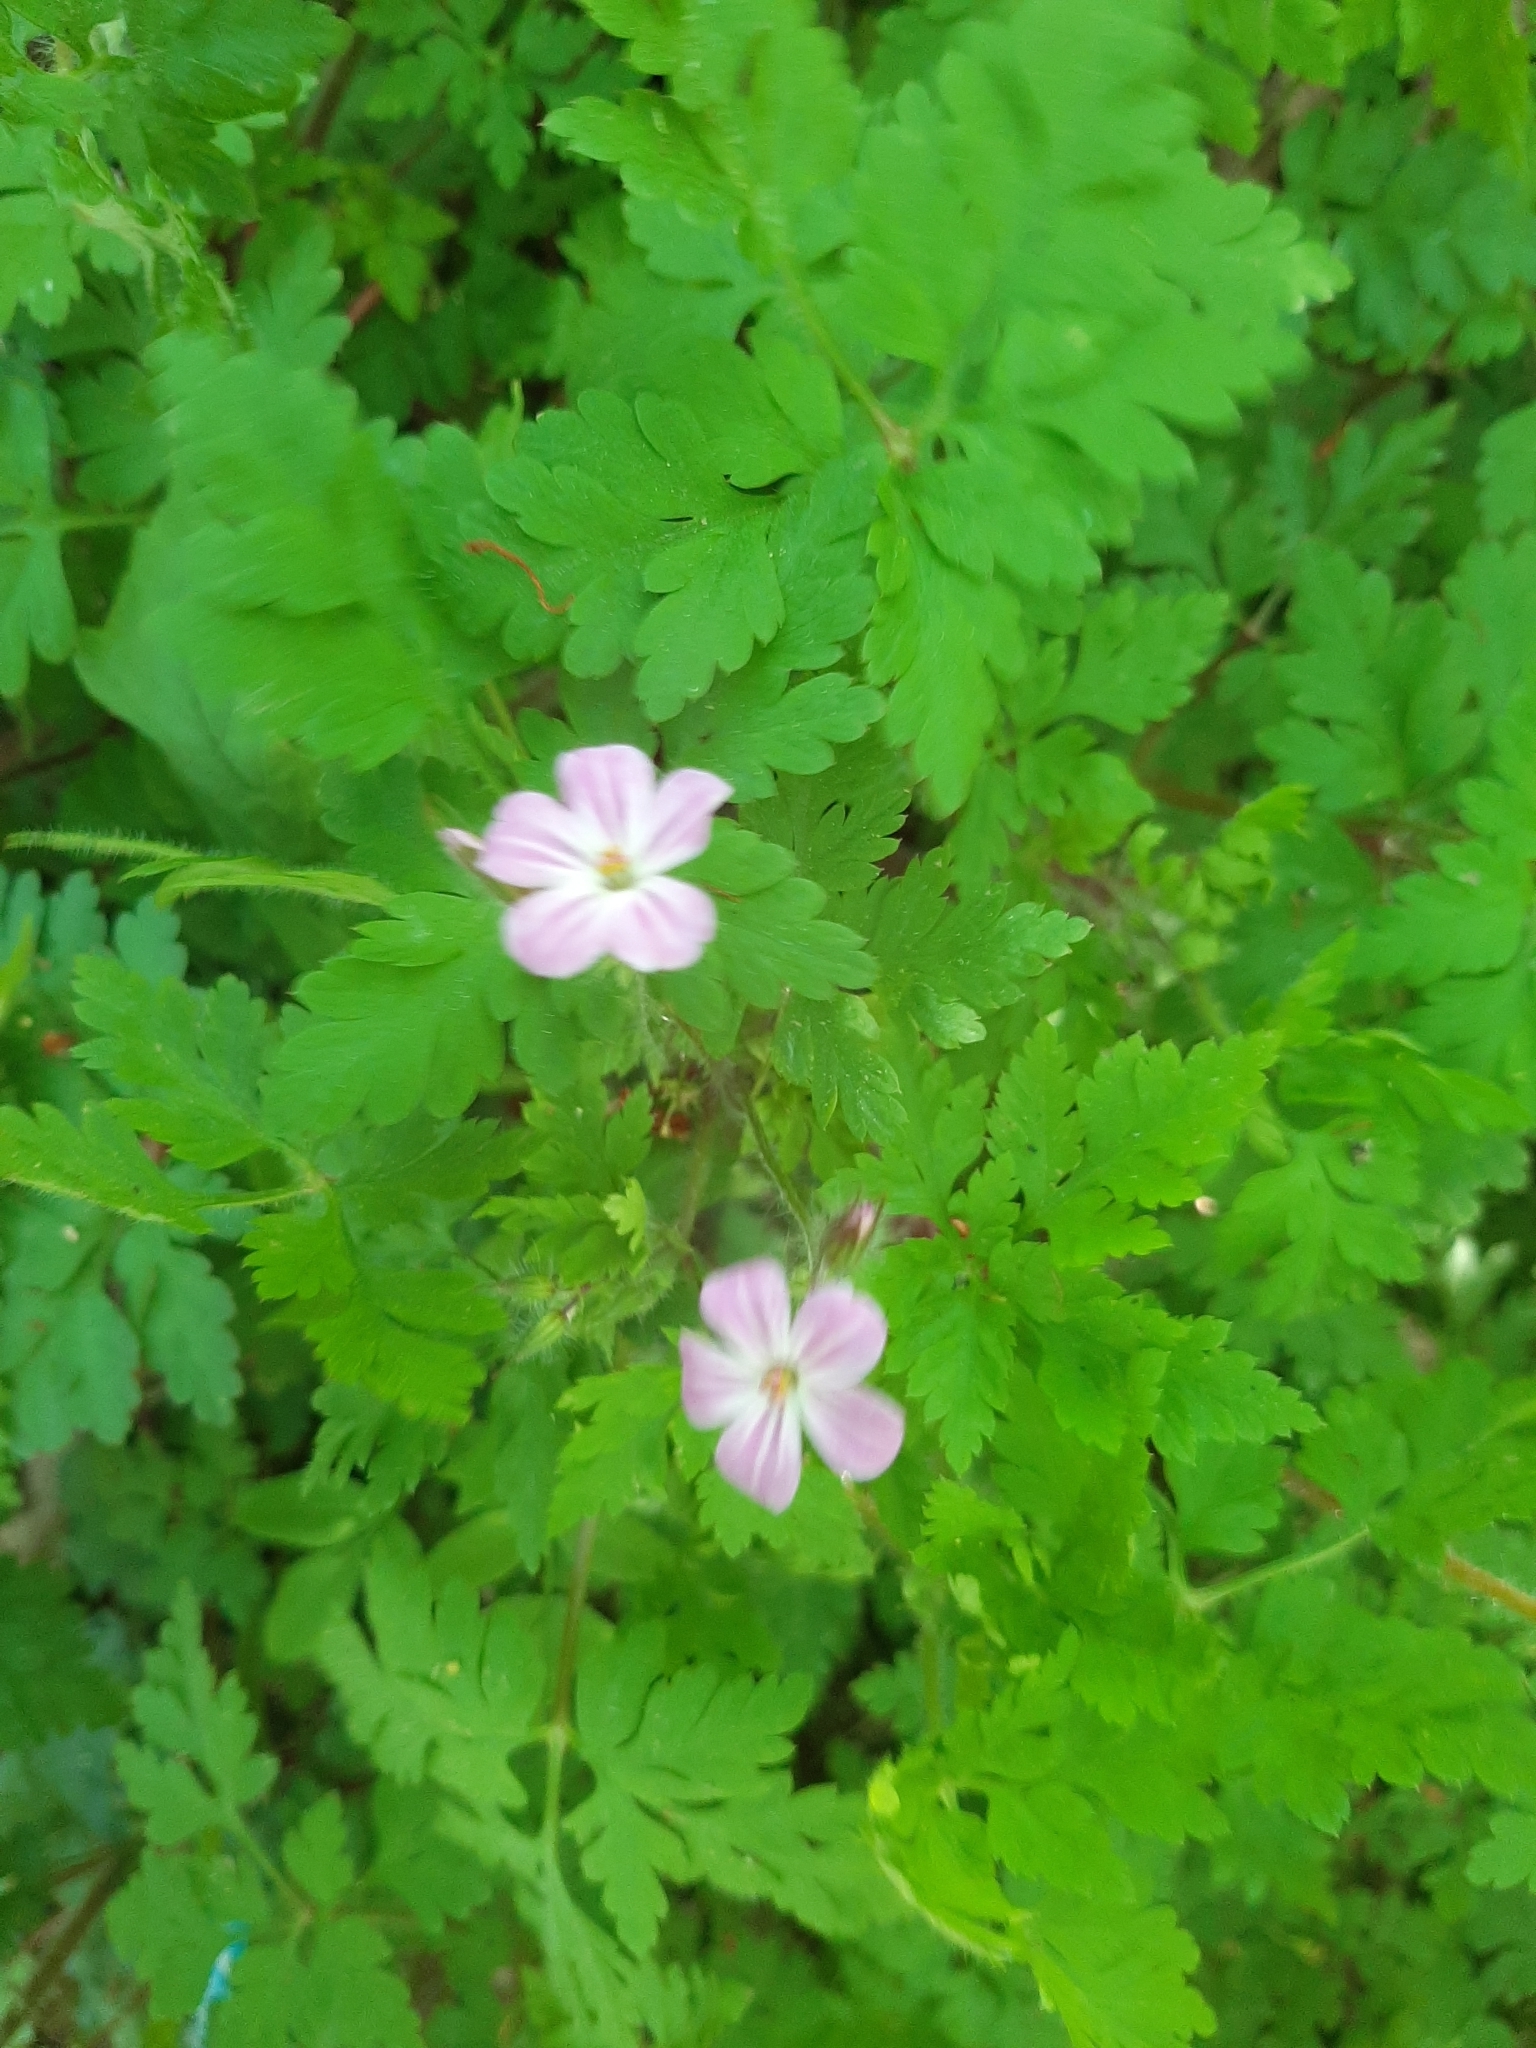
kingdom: Plantae
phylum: Tracheophyta
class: Magnoliopsida
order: Geraniales
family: Geraniaceae
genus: Geranium
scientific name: Geranium robertianum
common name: Herb-robert
